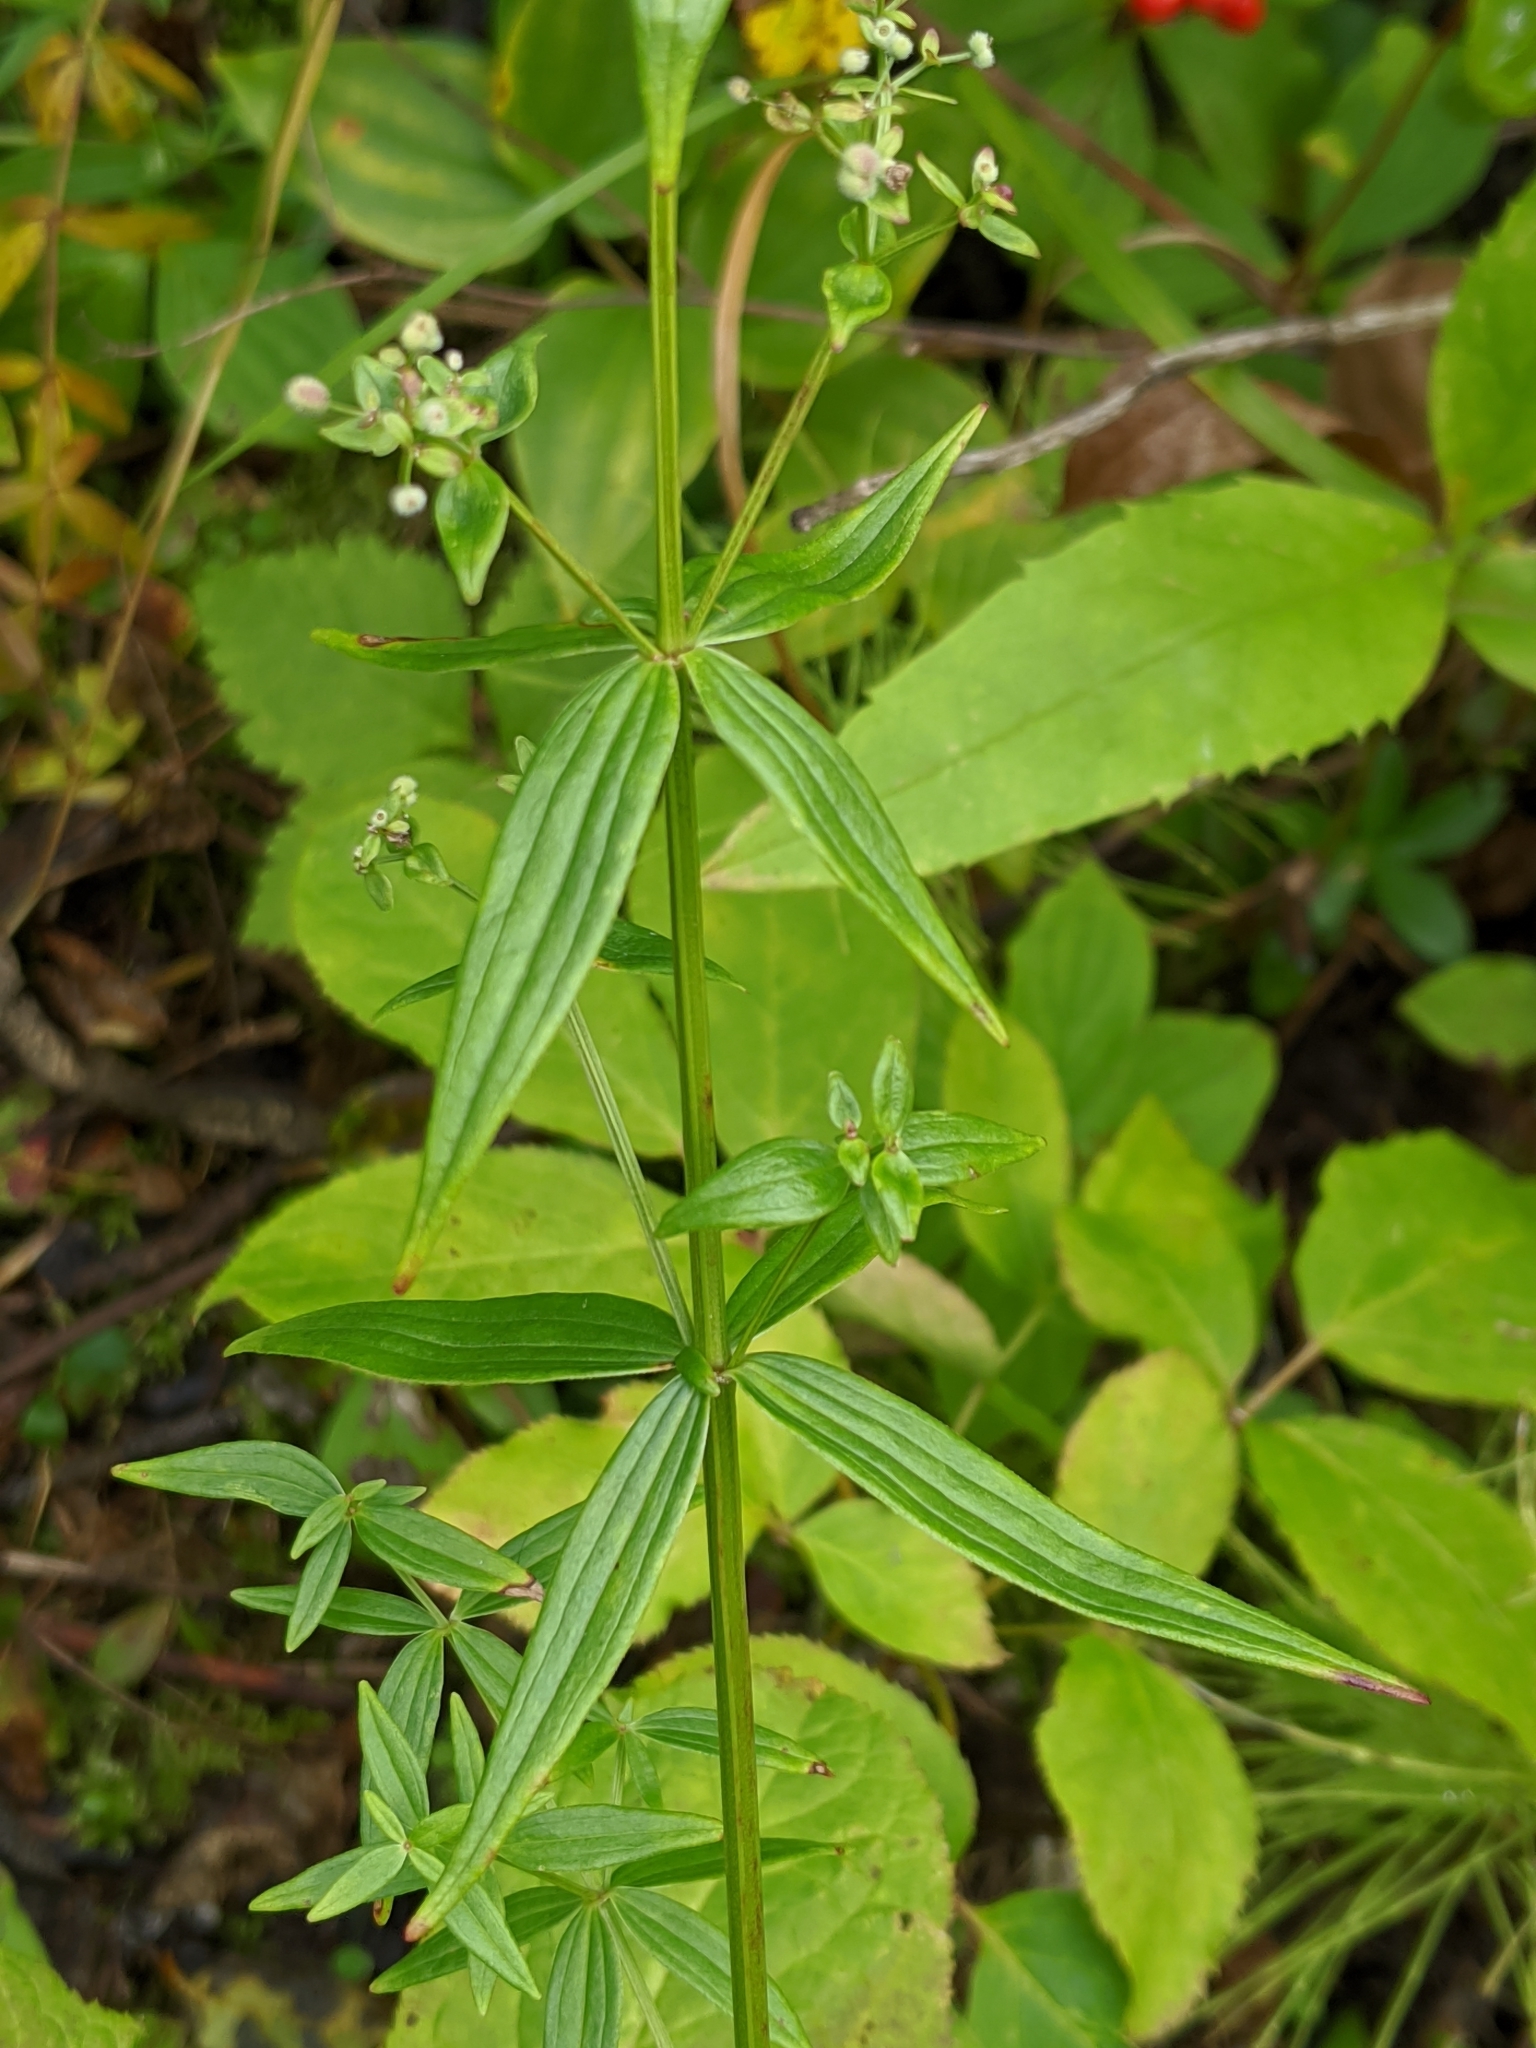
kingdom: Plantae
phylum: Tracheophyta
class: Magnoliopsida
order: Gentianales
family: Rubiaceae
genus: Galium
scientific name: Galium boreale
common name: Northern bedstraw
